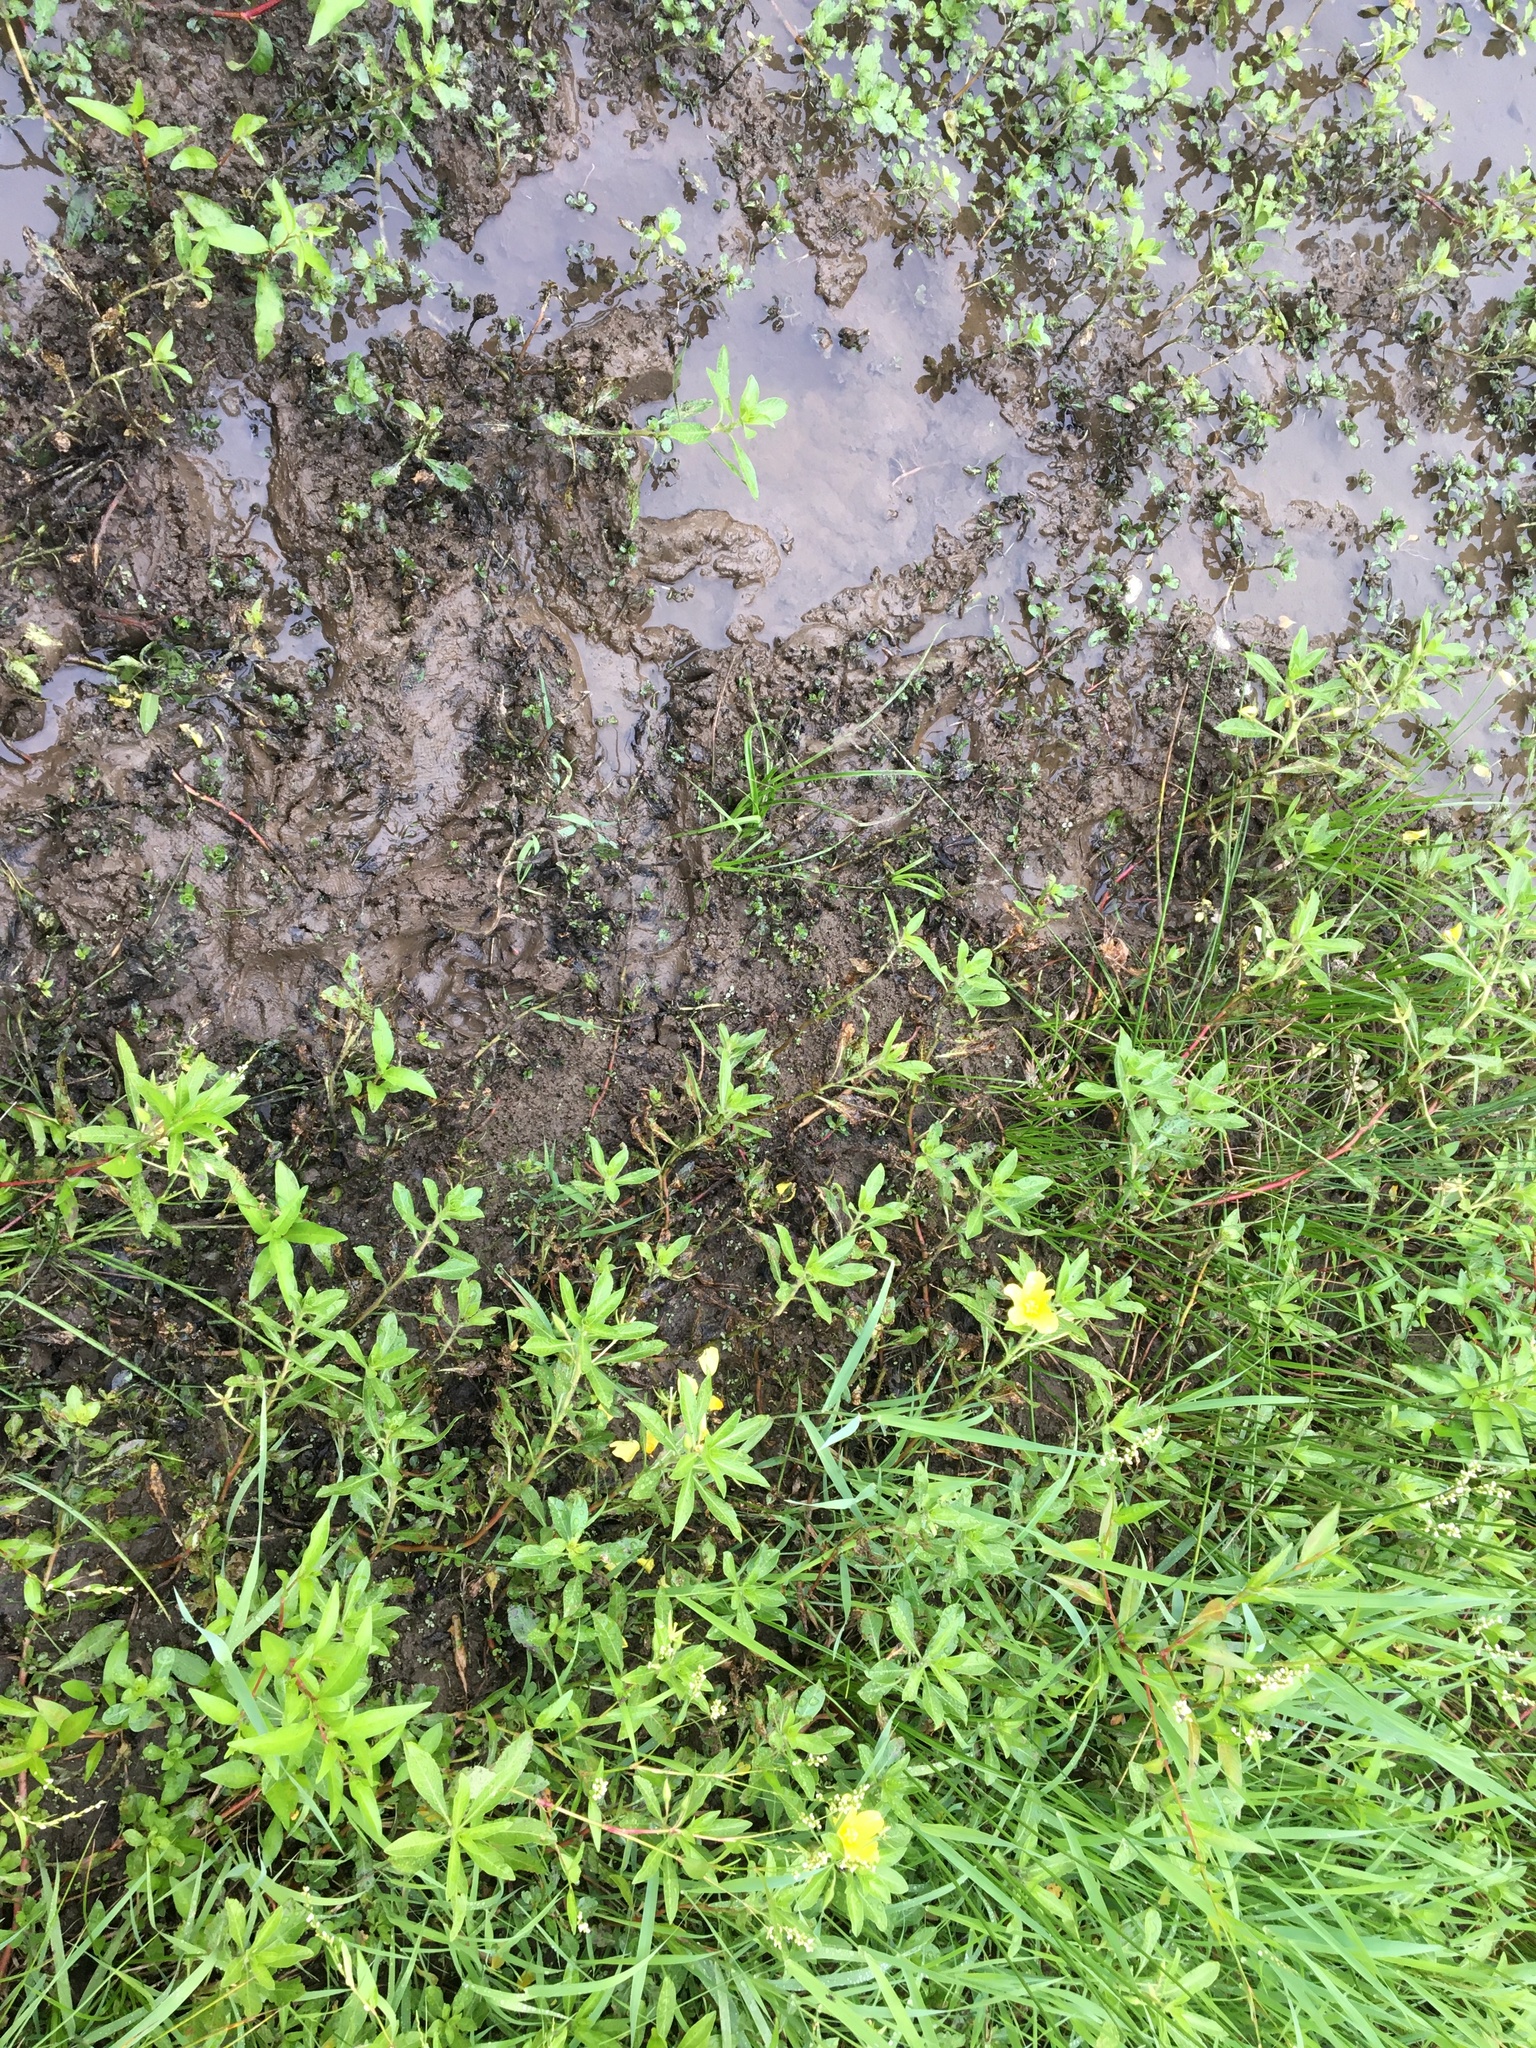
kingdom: Plantae
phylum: Tracheophyta
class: Magnoliopsida
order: Myrtales
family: Onagraceae
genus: Ludwigia
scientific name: Ludwigia peploides
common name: Floating primrose-willow
